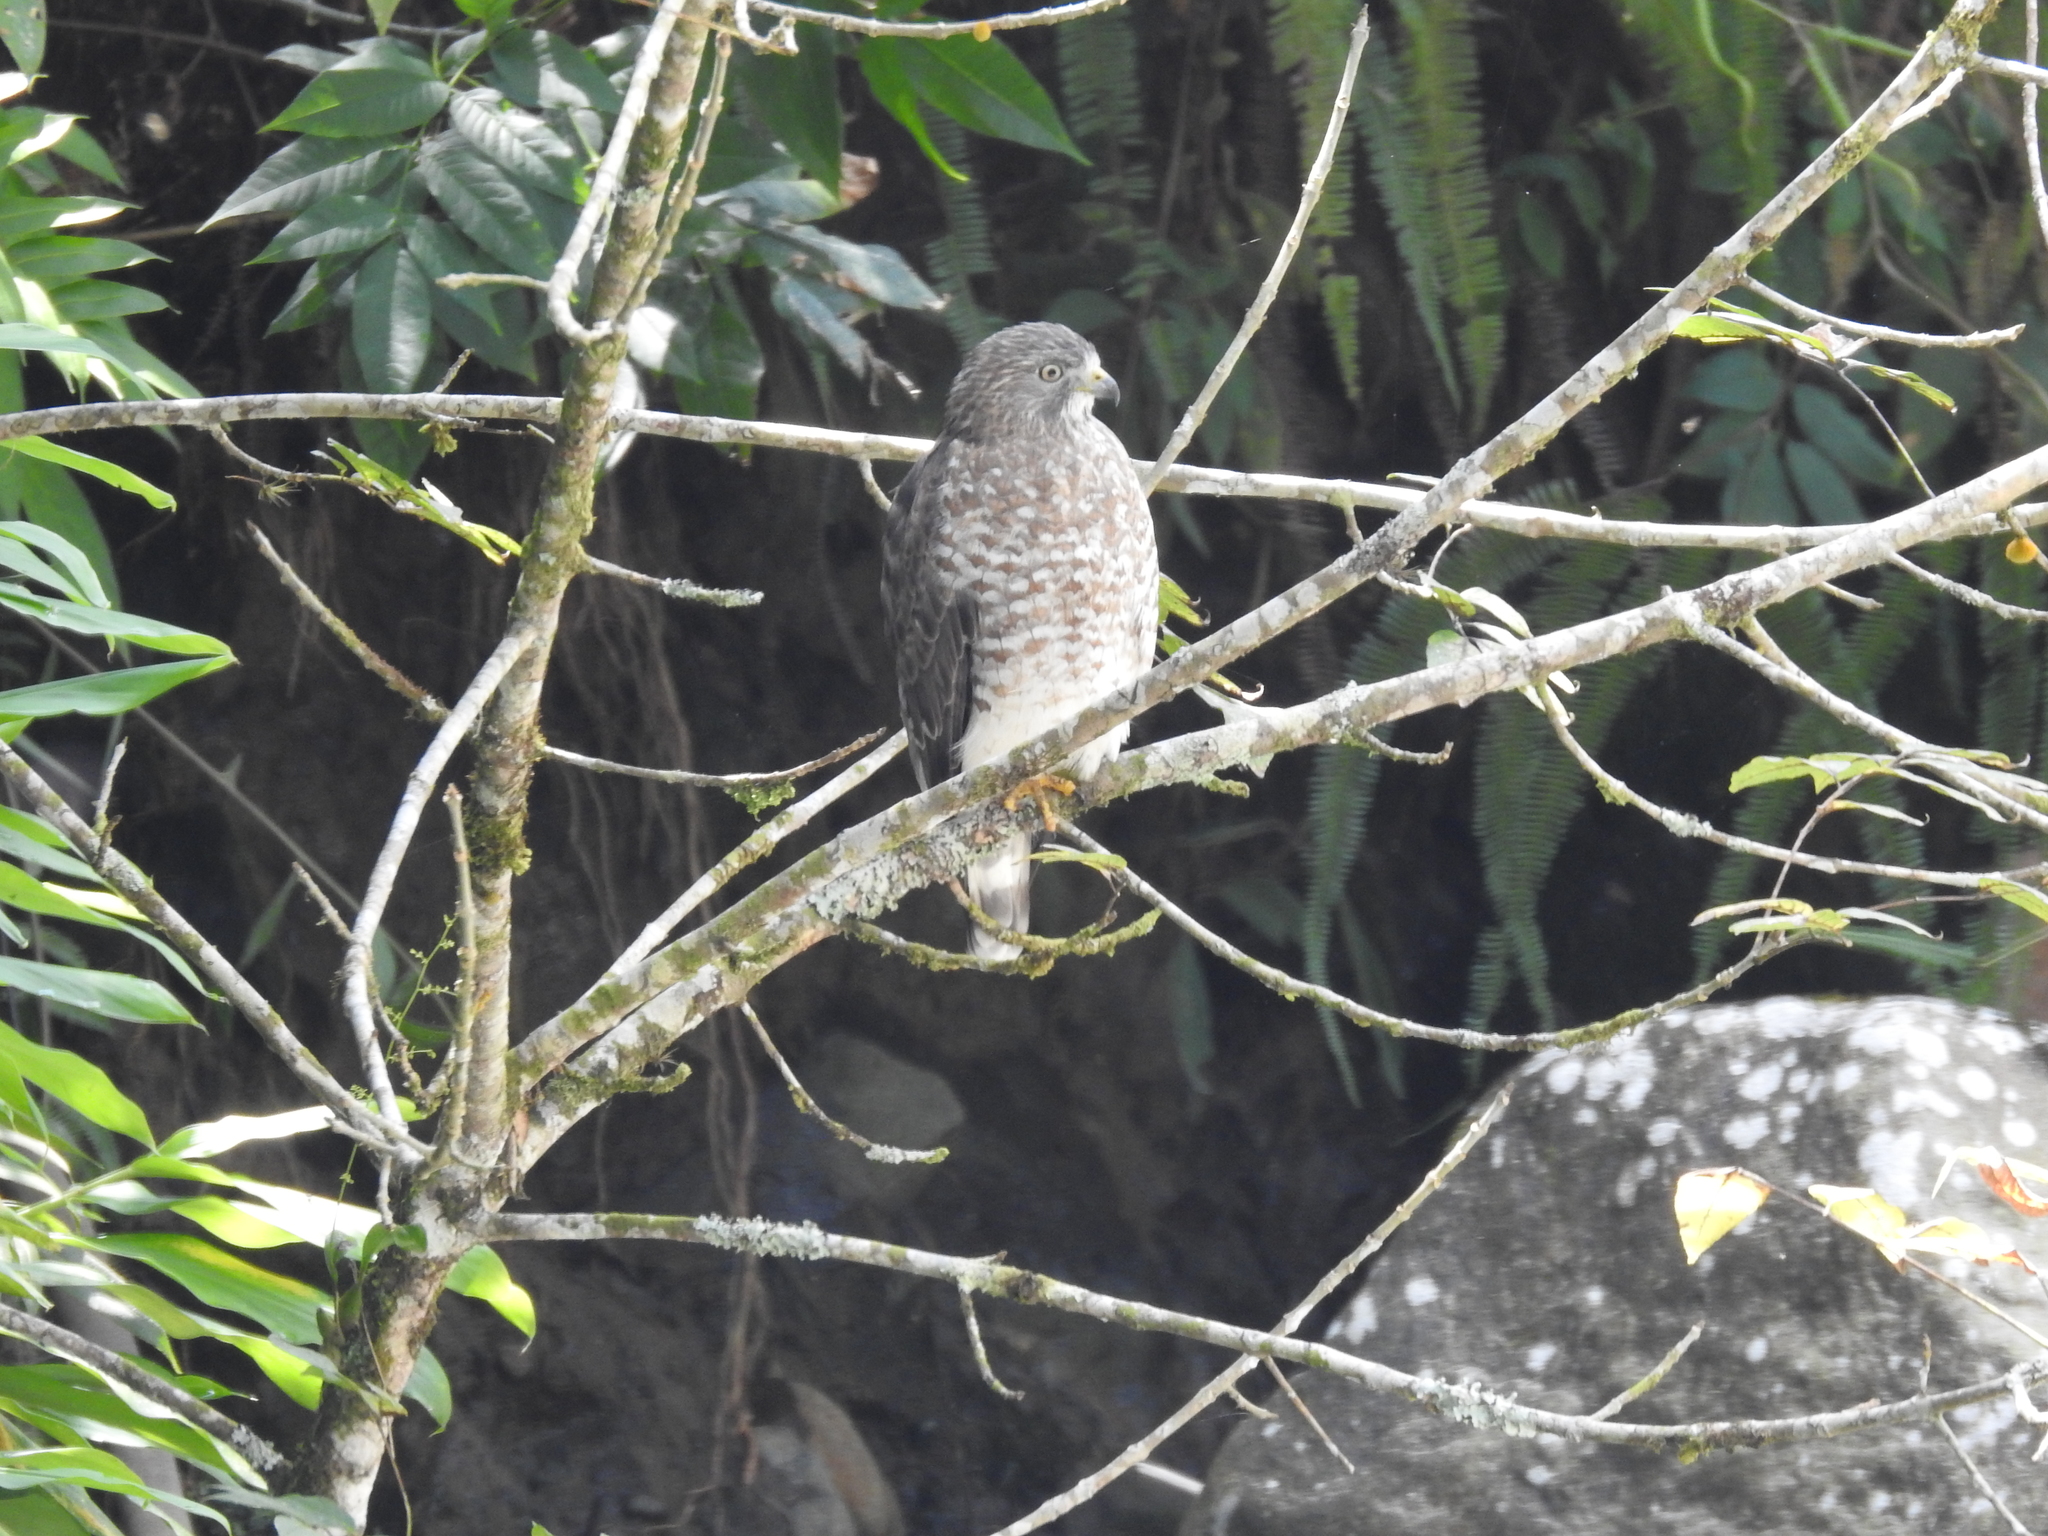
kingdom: Animalia
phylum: Chordata
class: Aves
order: Accipitriformes
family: Accipitridae
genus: Buteo
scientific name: Buteo platypterus
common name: Broad-winged hawk
